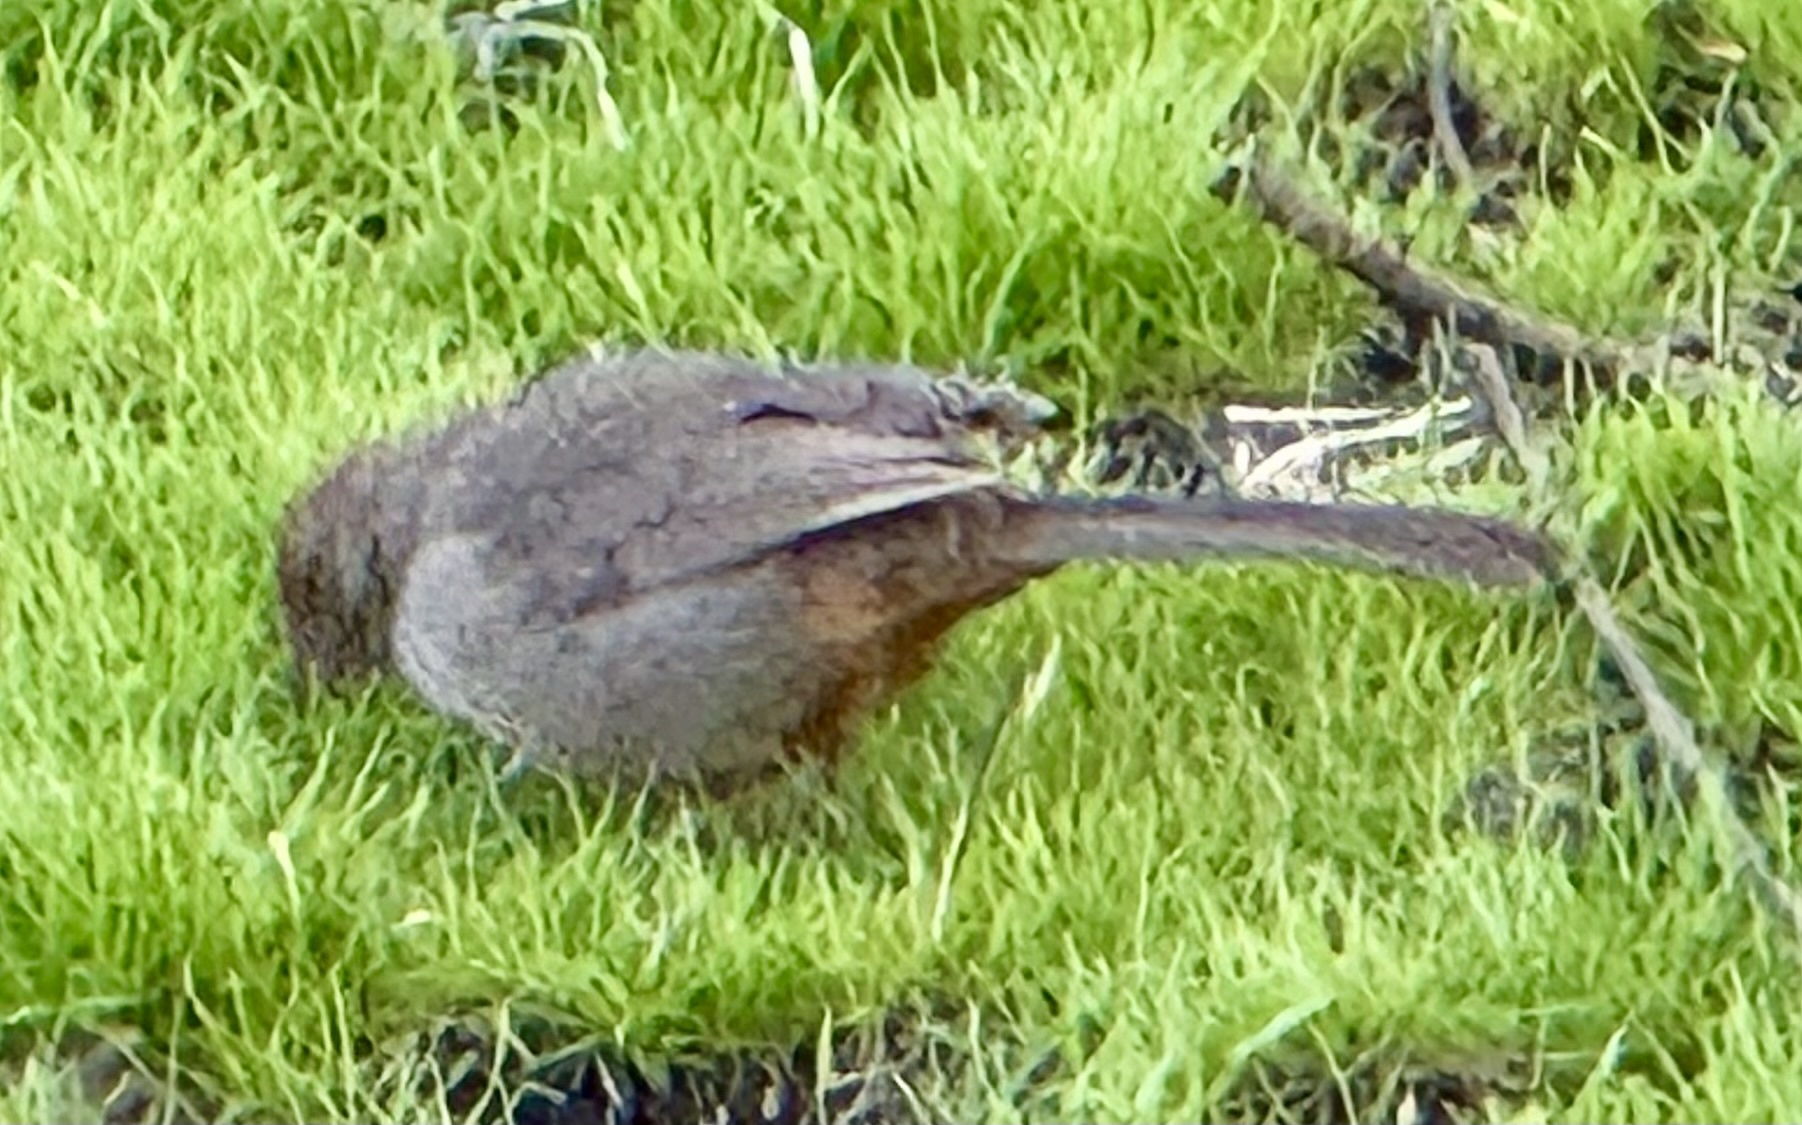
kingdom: Animalia
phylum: Chordata
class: Aves
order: Passeriformes
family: Passerellidae
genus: Melozone
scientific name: Melozone crissalis
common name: California towhee
